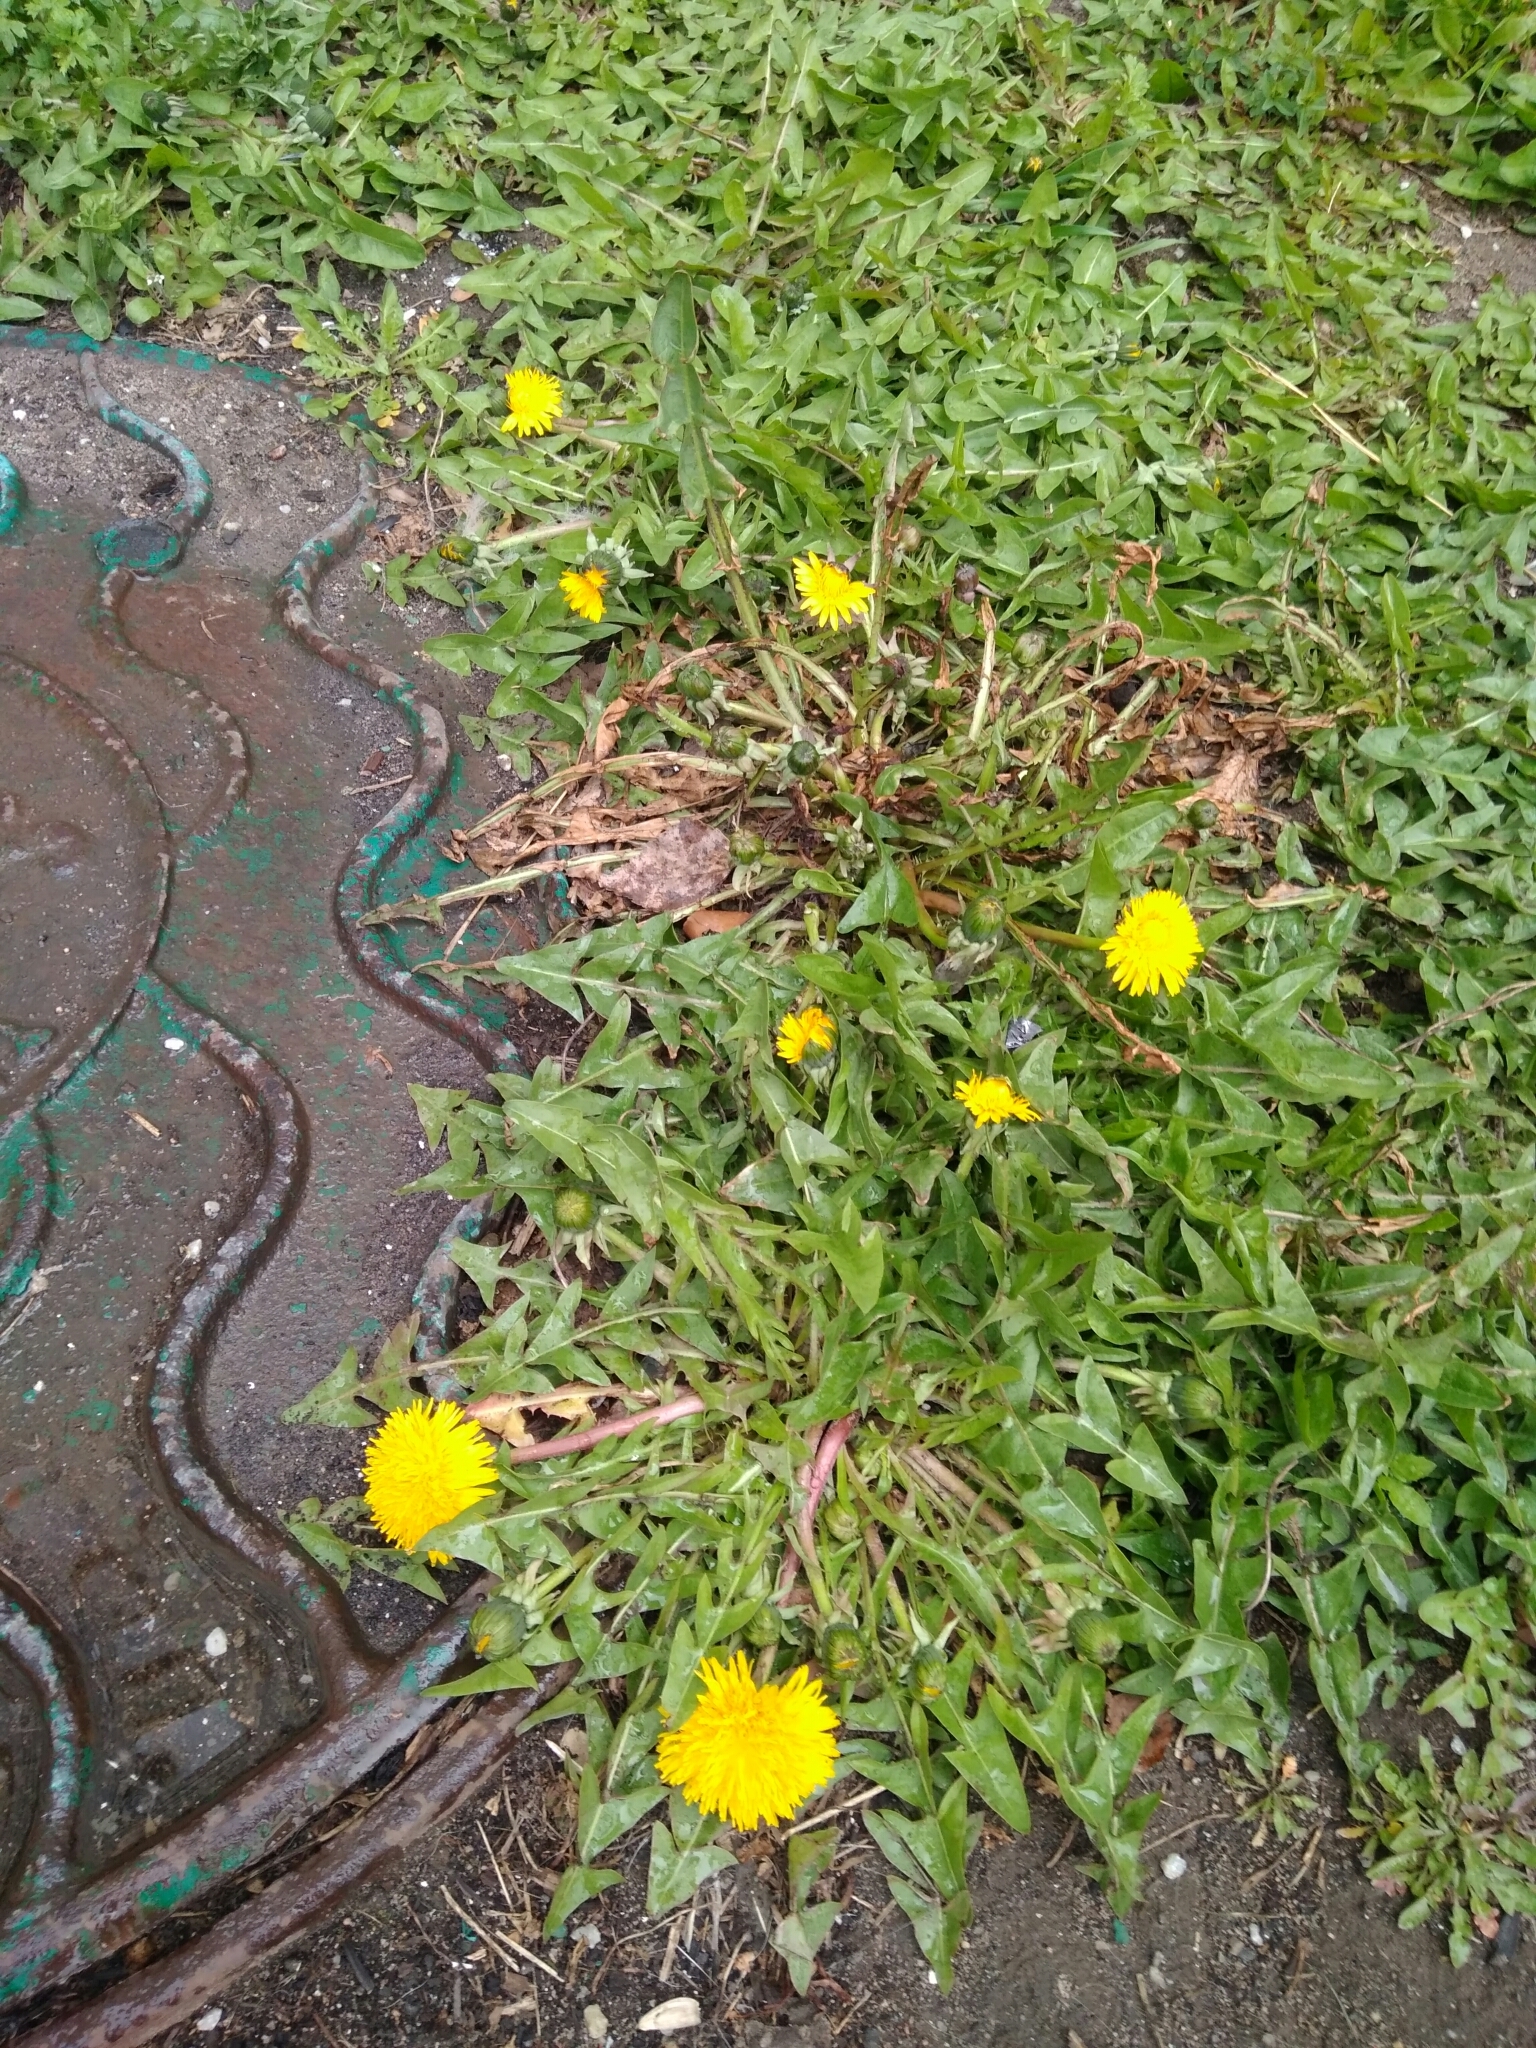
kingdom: Plantae
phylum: Tracheophyta
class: Magnoliopsida
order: Asterales
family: Asteraceae
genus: Taraxacum
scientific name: Taraxacum officinale
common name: Common dandelion
